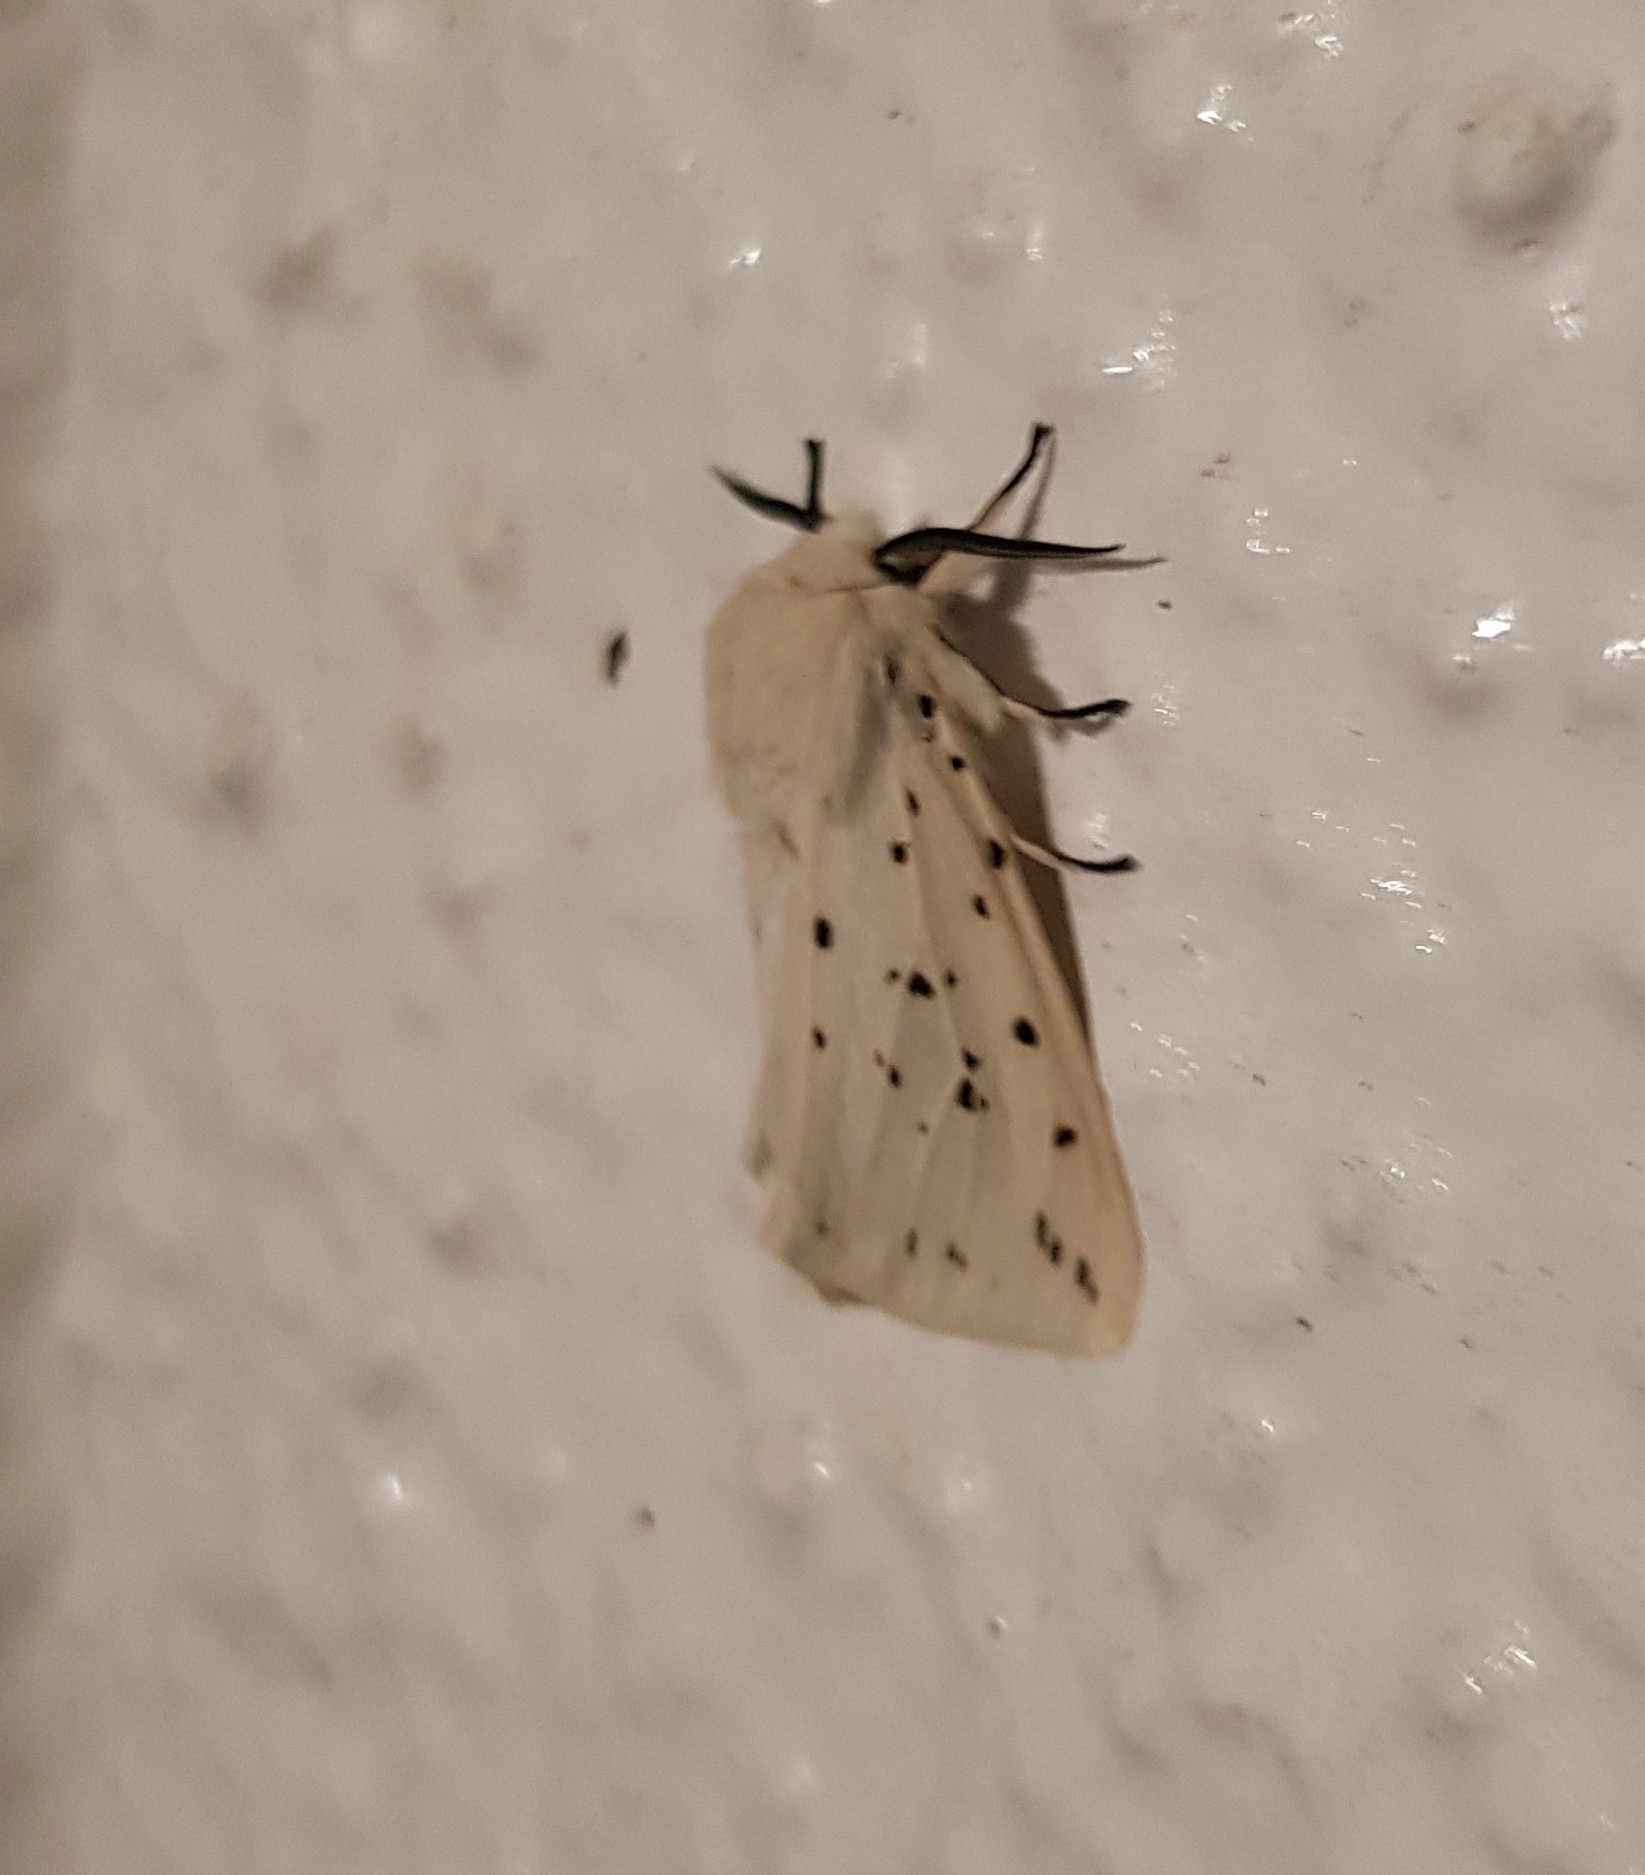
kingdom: Animalia
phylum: Arthropoda
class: Insecta
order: Lepidoptera
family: Erebidae
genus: Spilosoma
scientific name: Spilosoma lubricipeda
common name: White ermine
